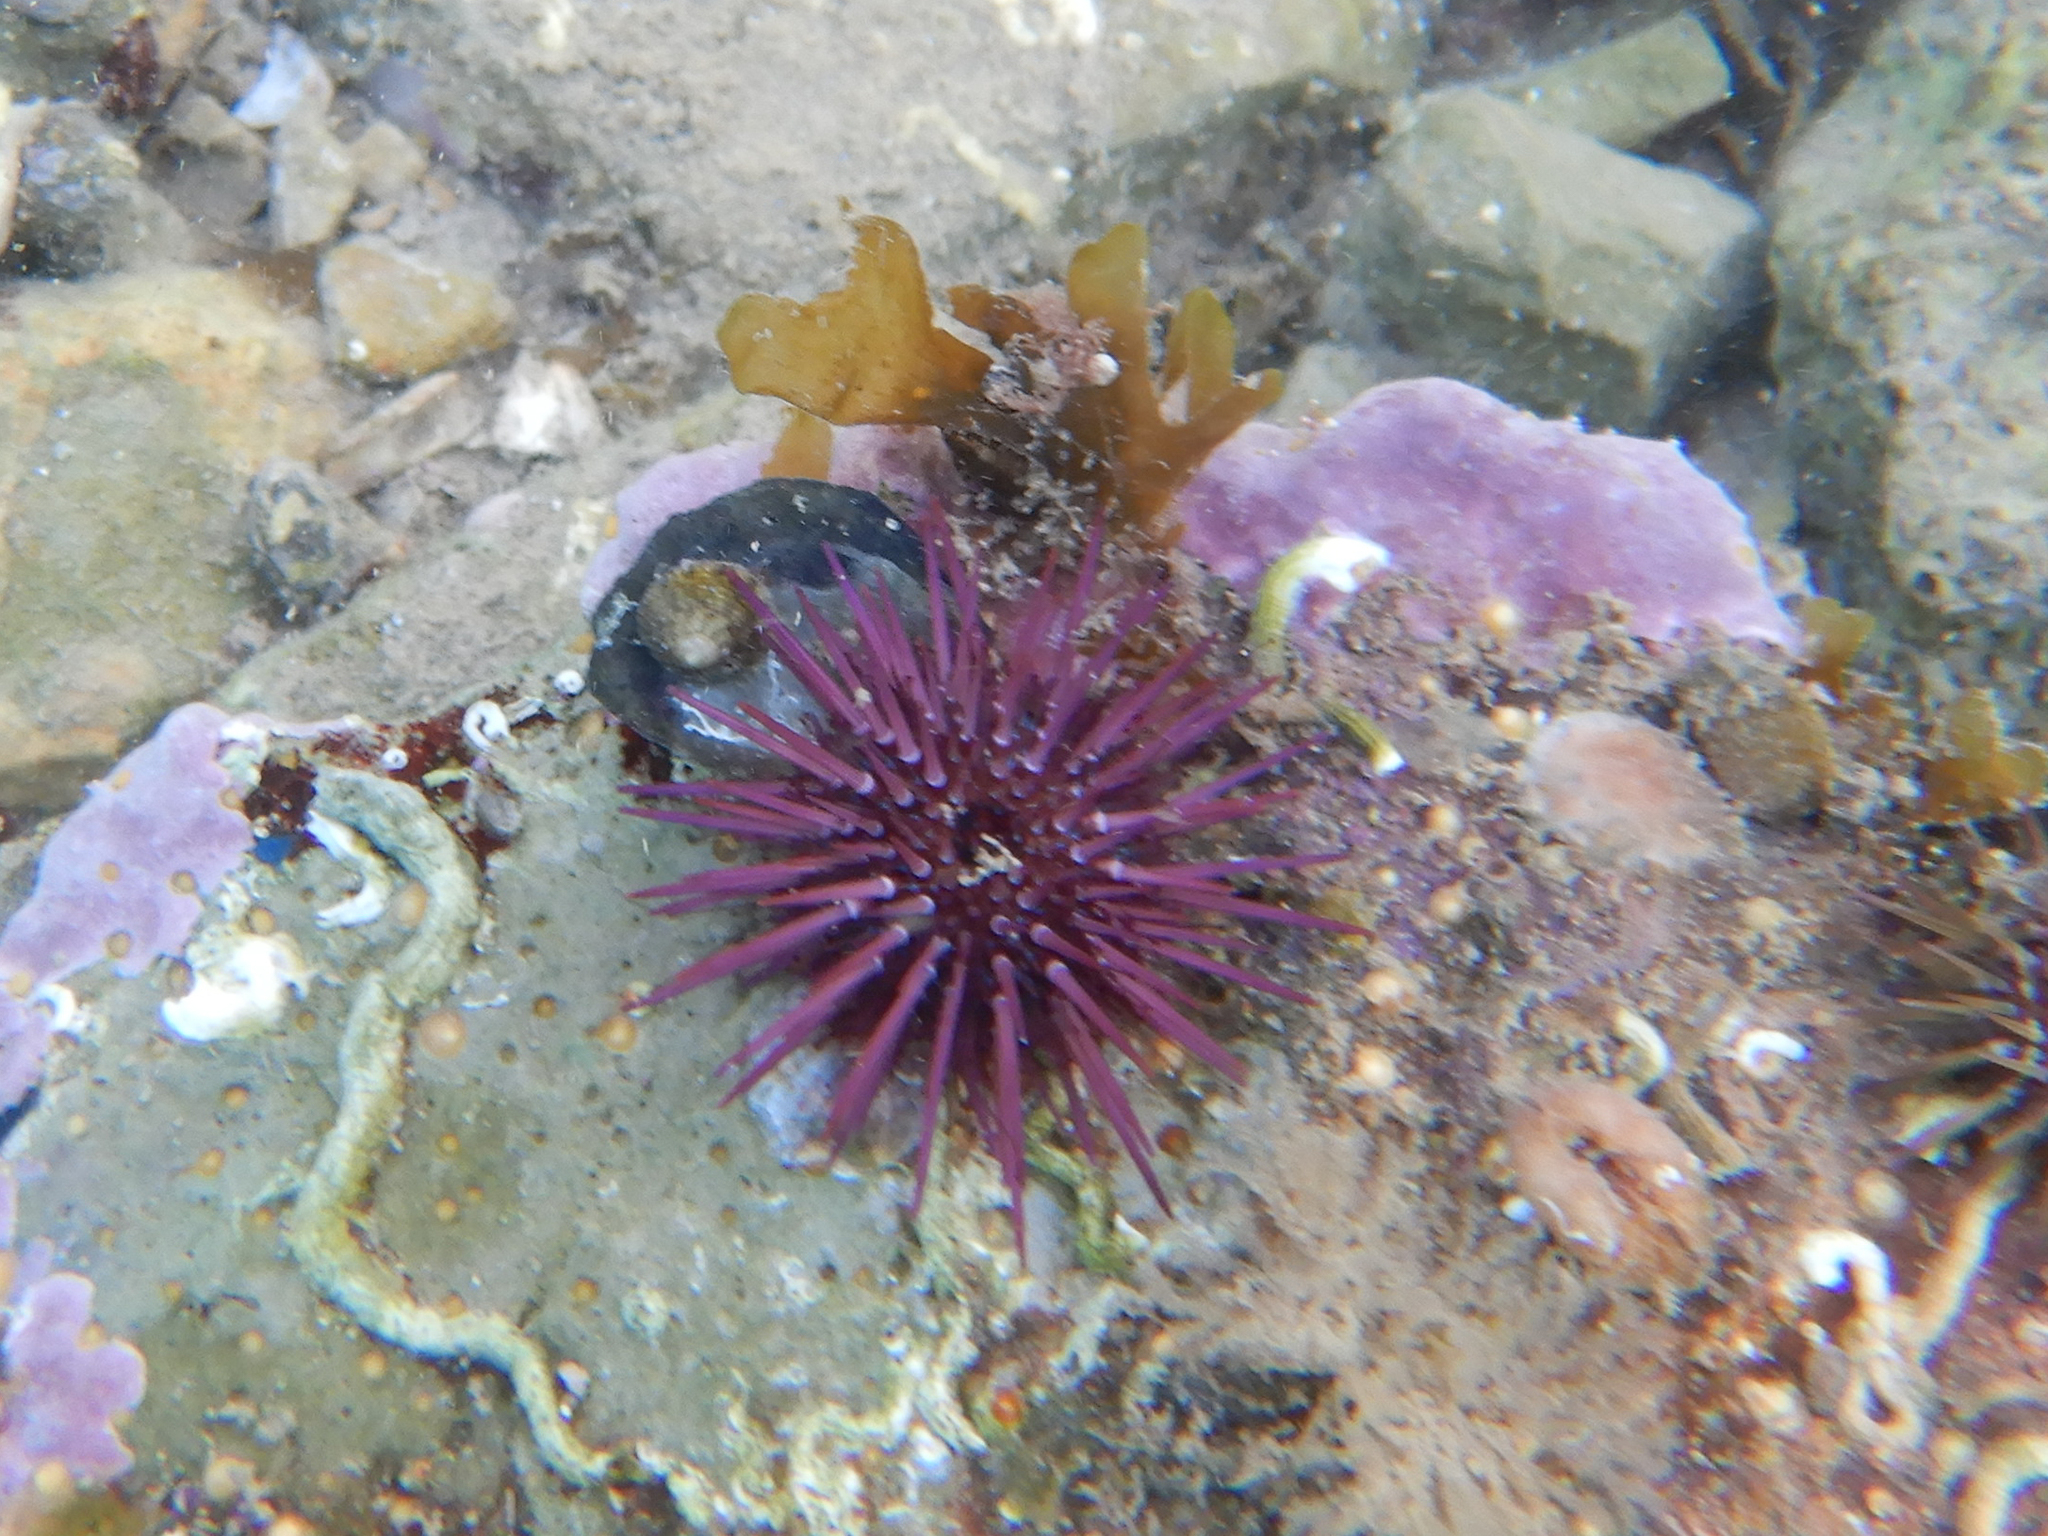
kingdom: Animalia
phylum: Echinodermata
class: Echinoidea
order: Camarodonta
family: Parechinidae
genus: Paracentrotus
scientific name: Paracentrotus lividus
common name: Purple sea urchin
